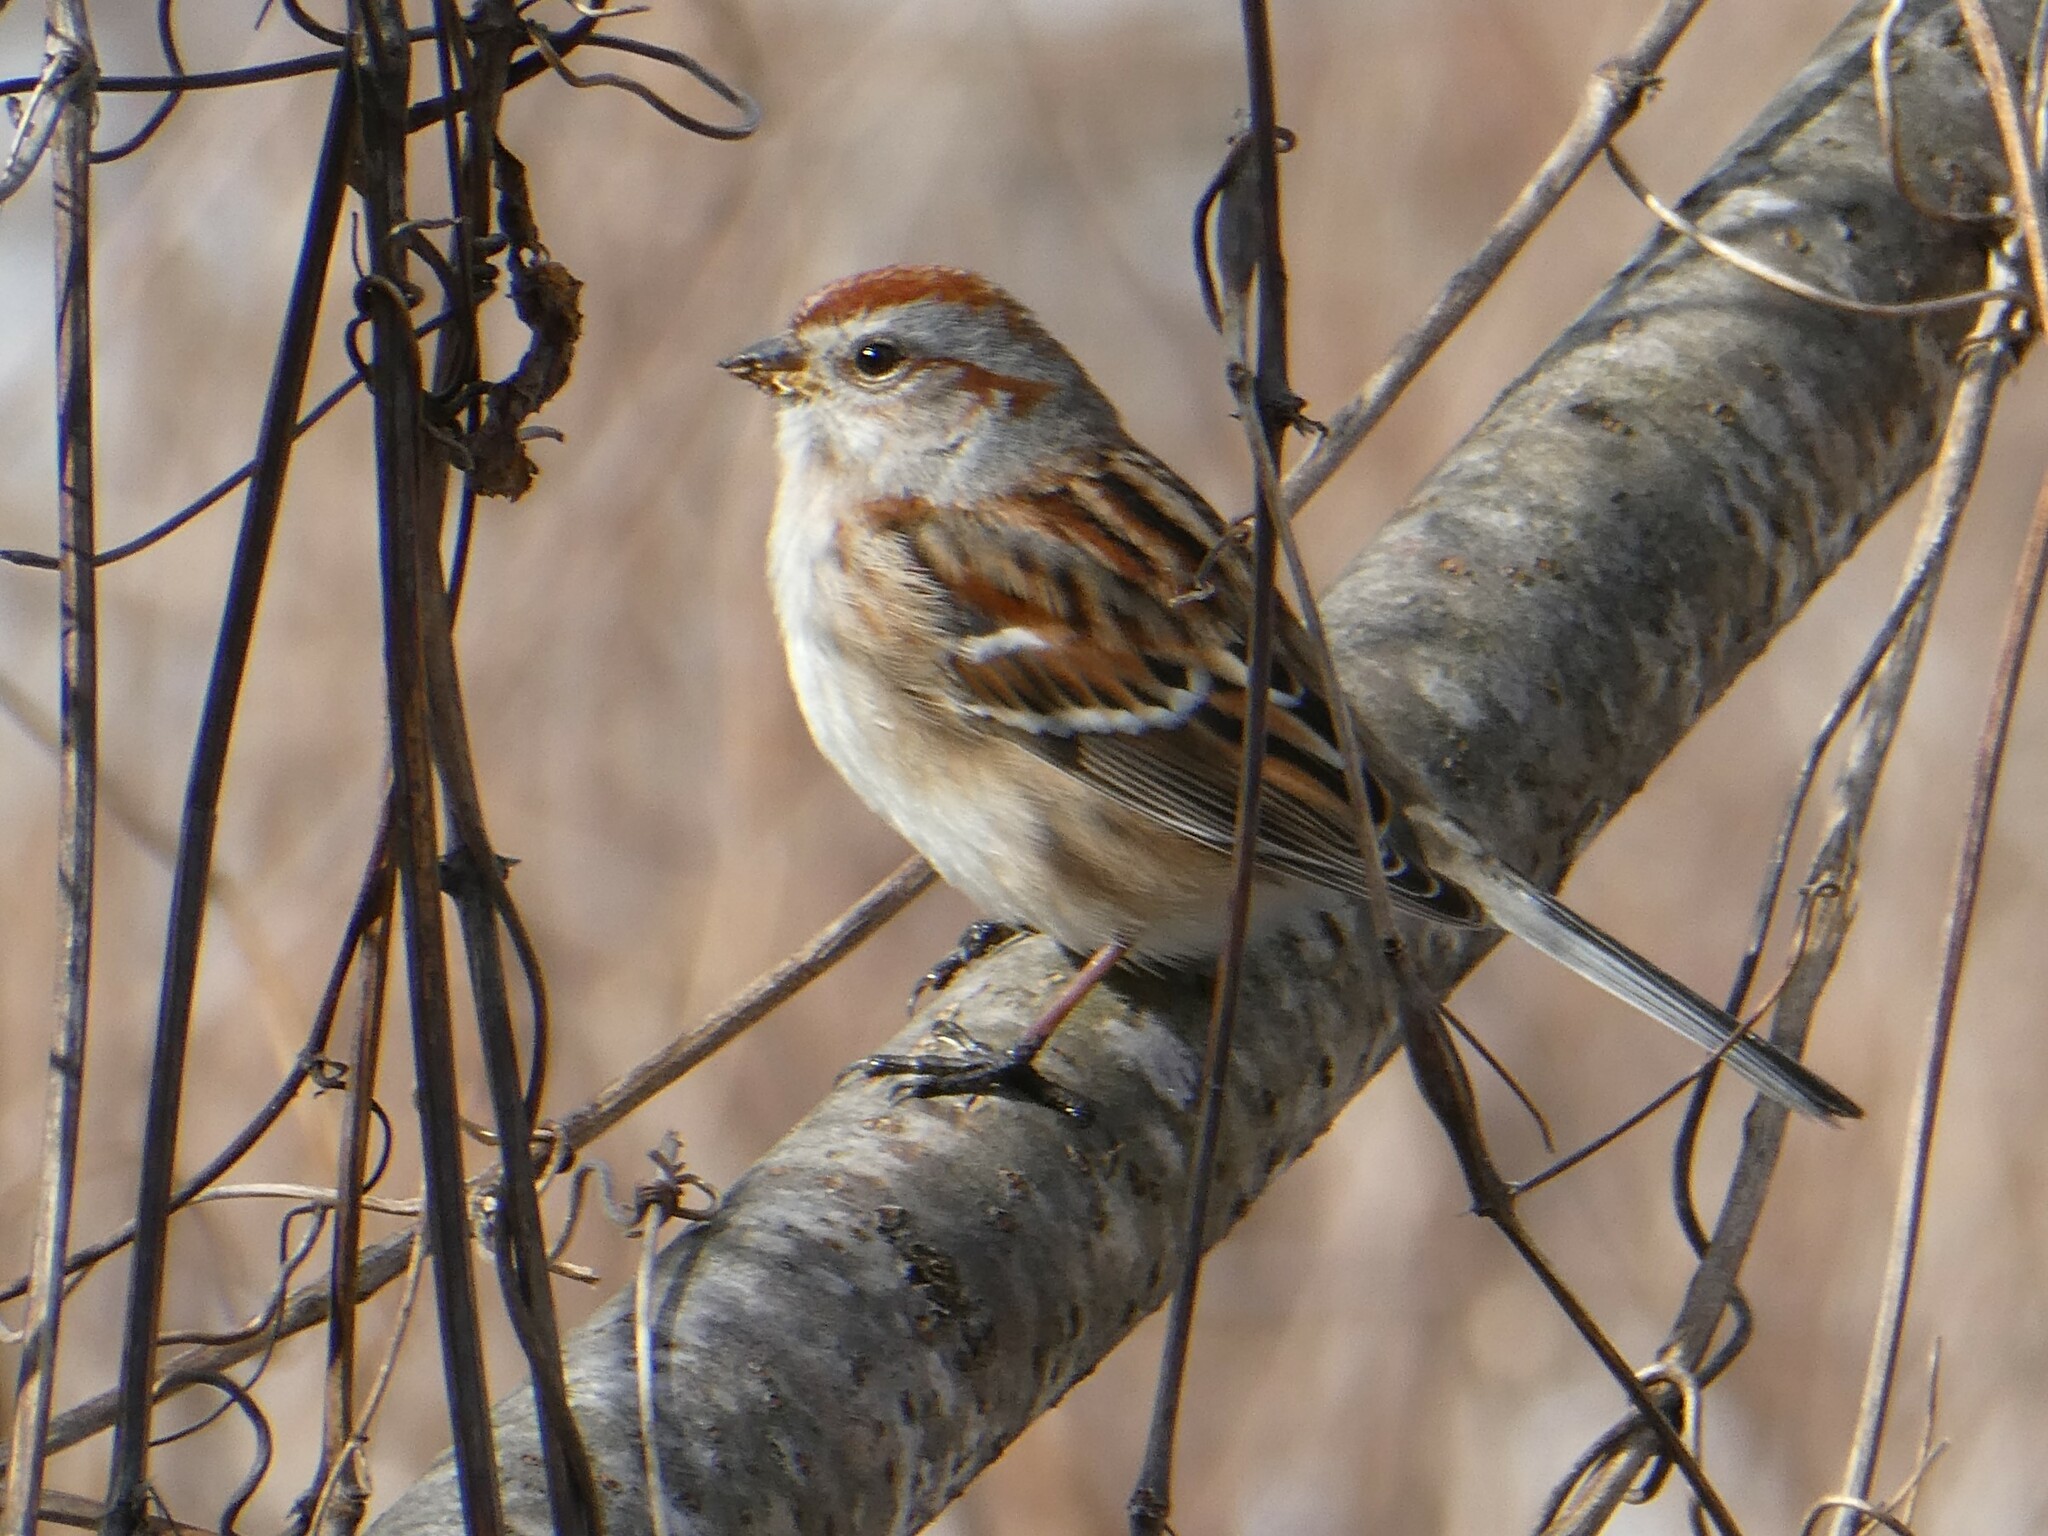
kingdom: Animalia
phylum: Chordata
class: Aves
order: Passeriformes
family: Passerellidae
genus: Spizelloides
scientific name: Spizelloides arborea
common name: American tree sparrow
